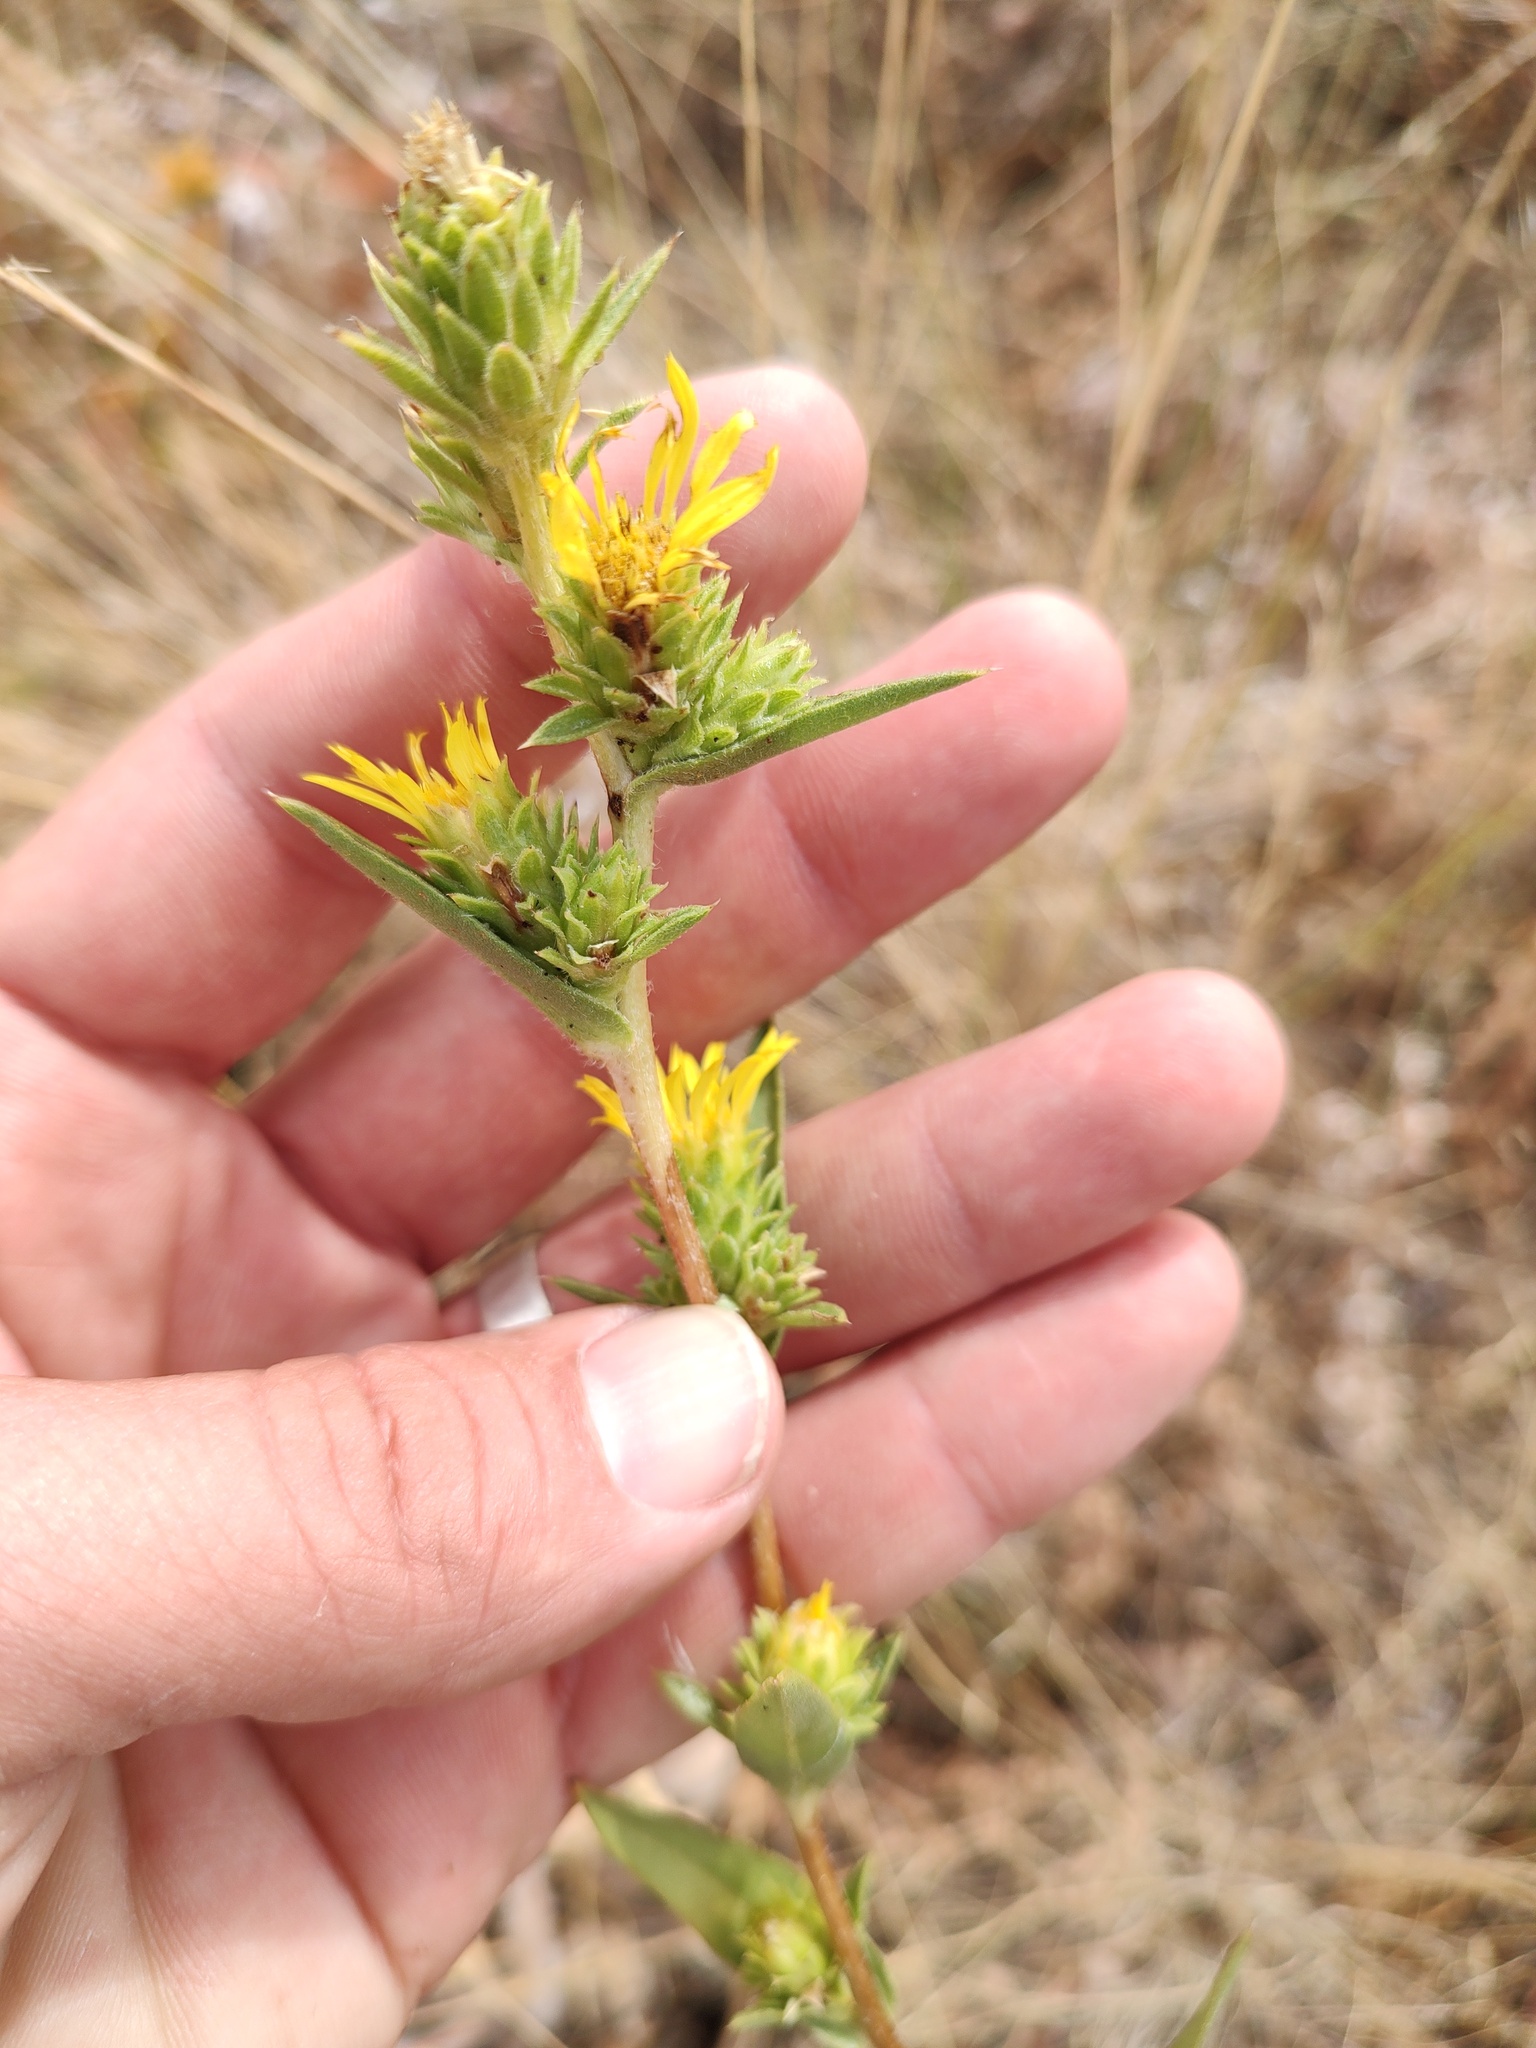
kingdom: Plantae
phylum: Tracheophyta
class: Magnoliopsida
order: Asterales
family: Asteraceae
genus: Pyrrocoma
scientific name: Pyrrocoma liatriformis
